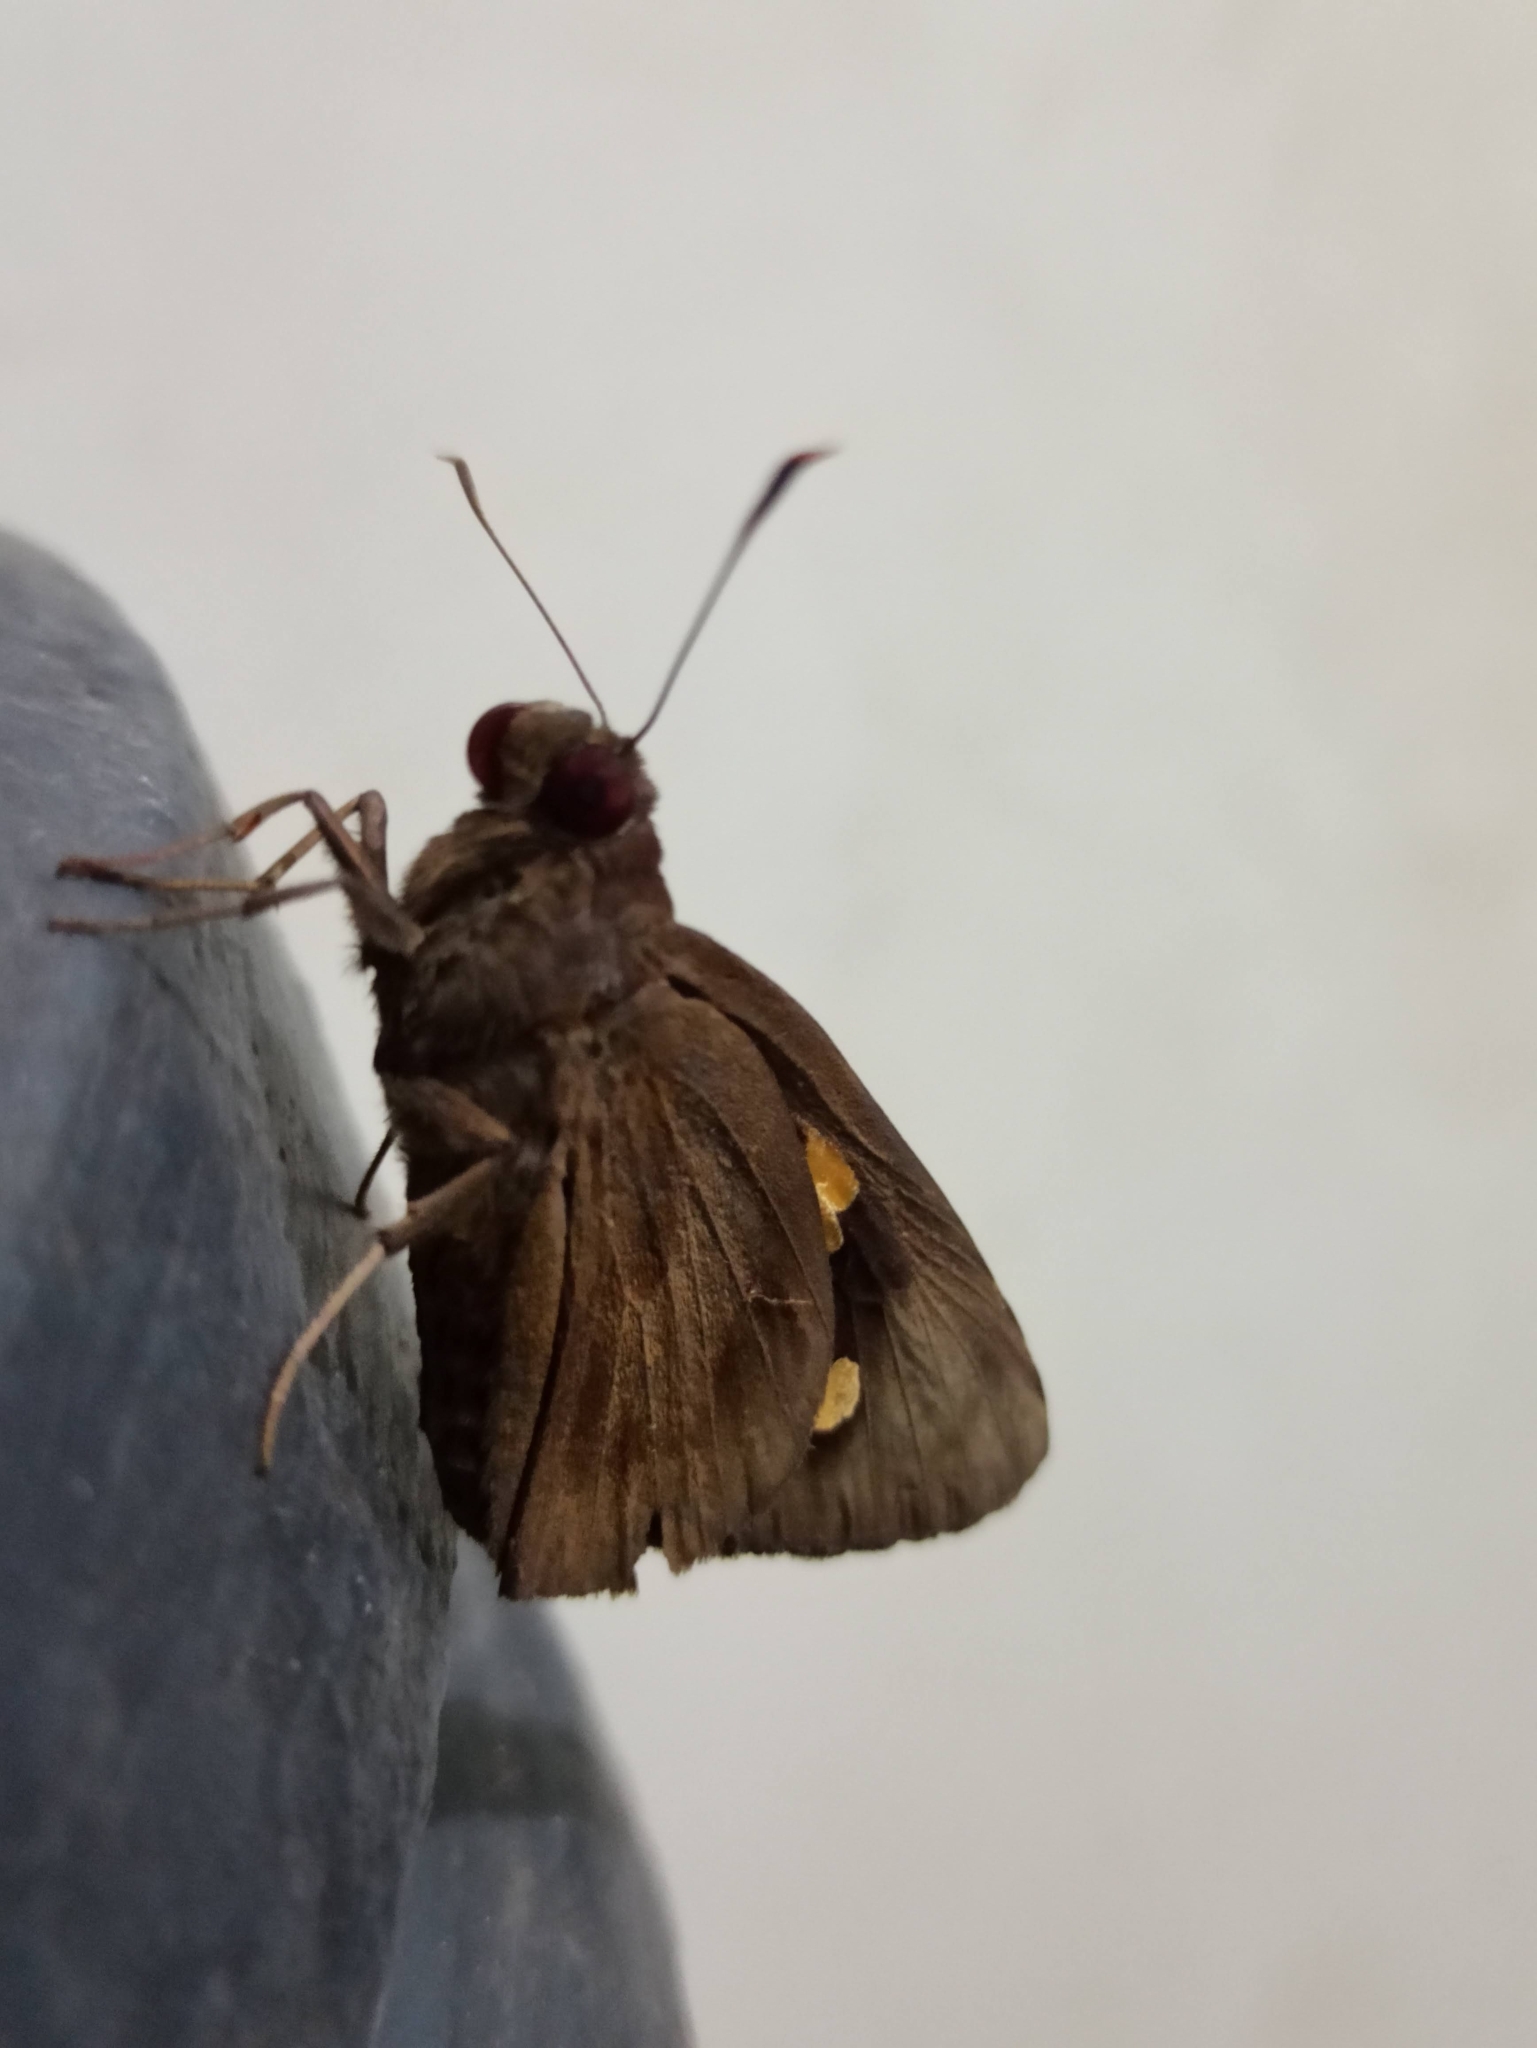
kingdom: Animalia
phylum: Arthropoda
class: Insecta
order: Lepidoptera
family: Hesperiidae
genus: Erionota
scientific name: Erionota torus
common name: Rounded palm-redeye
